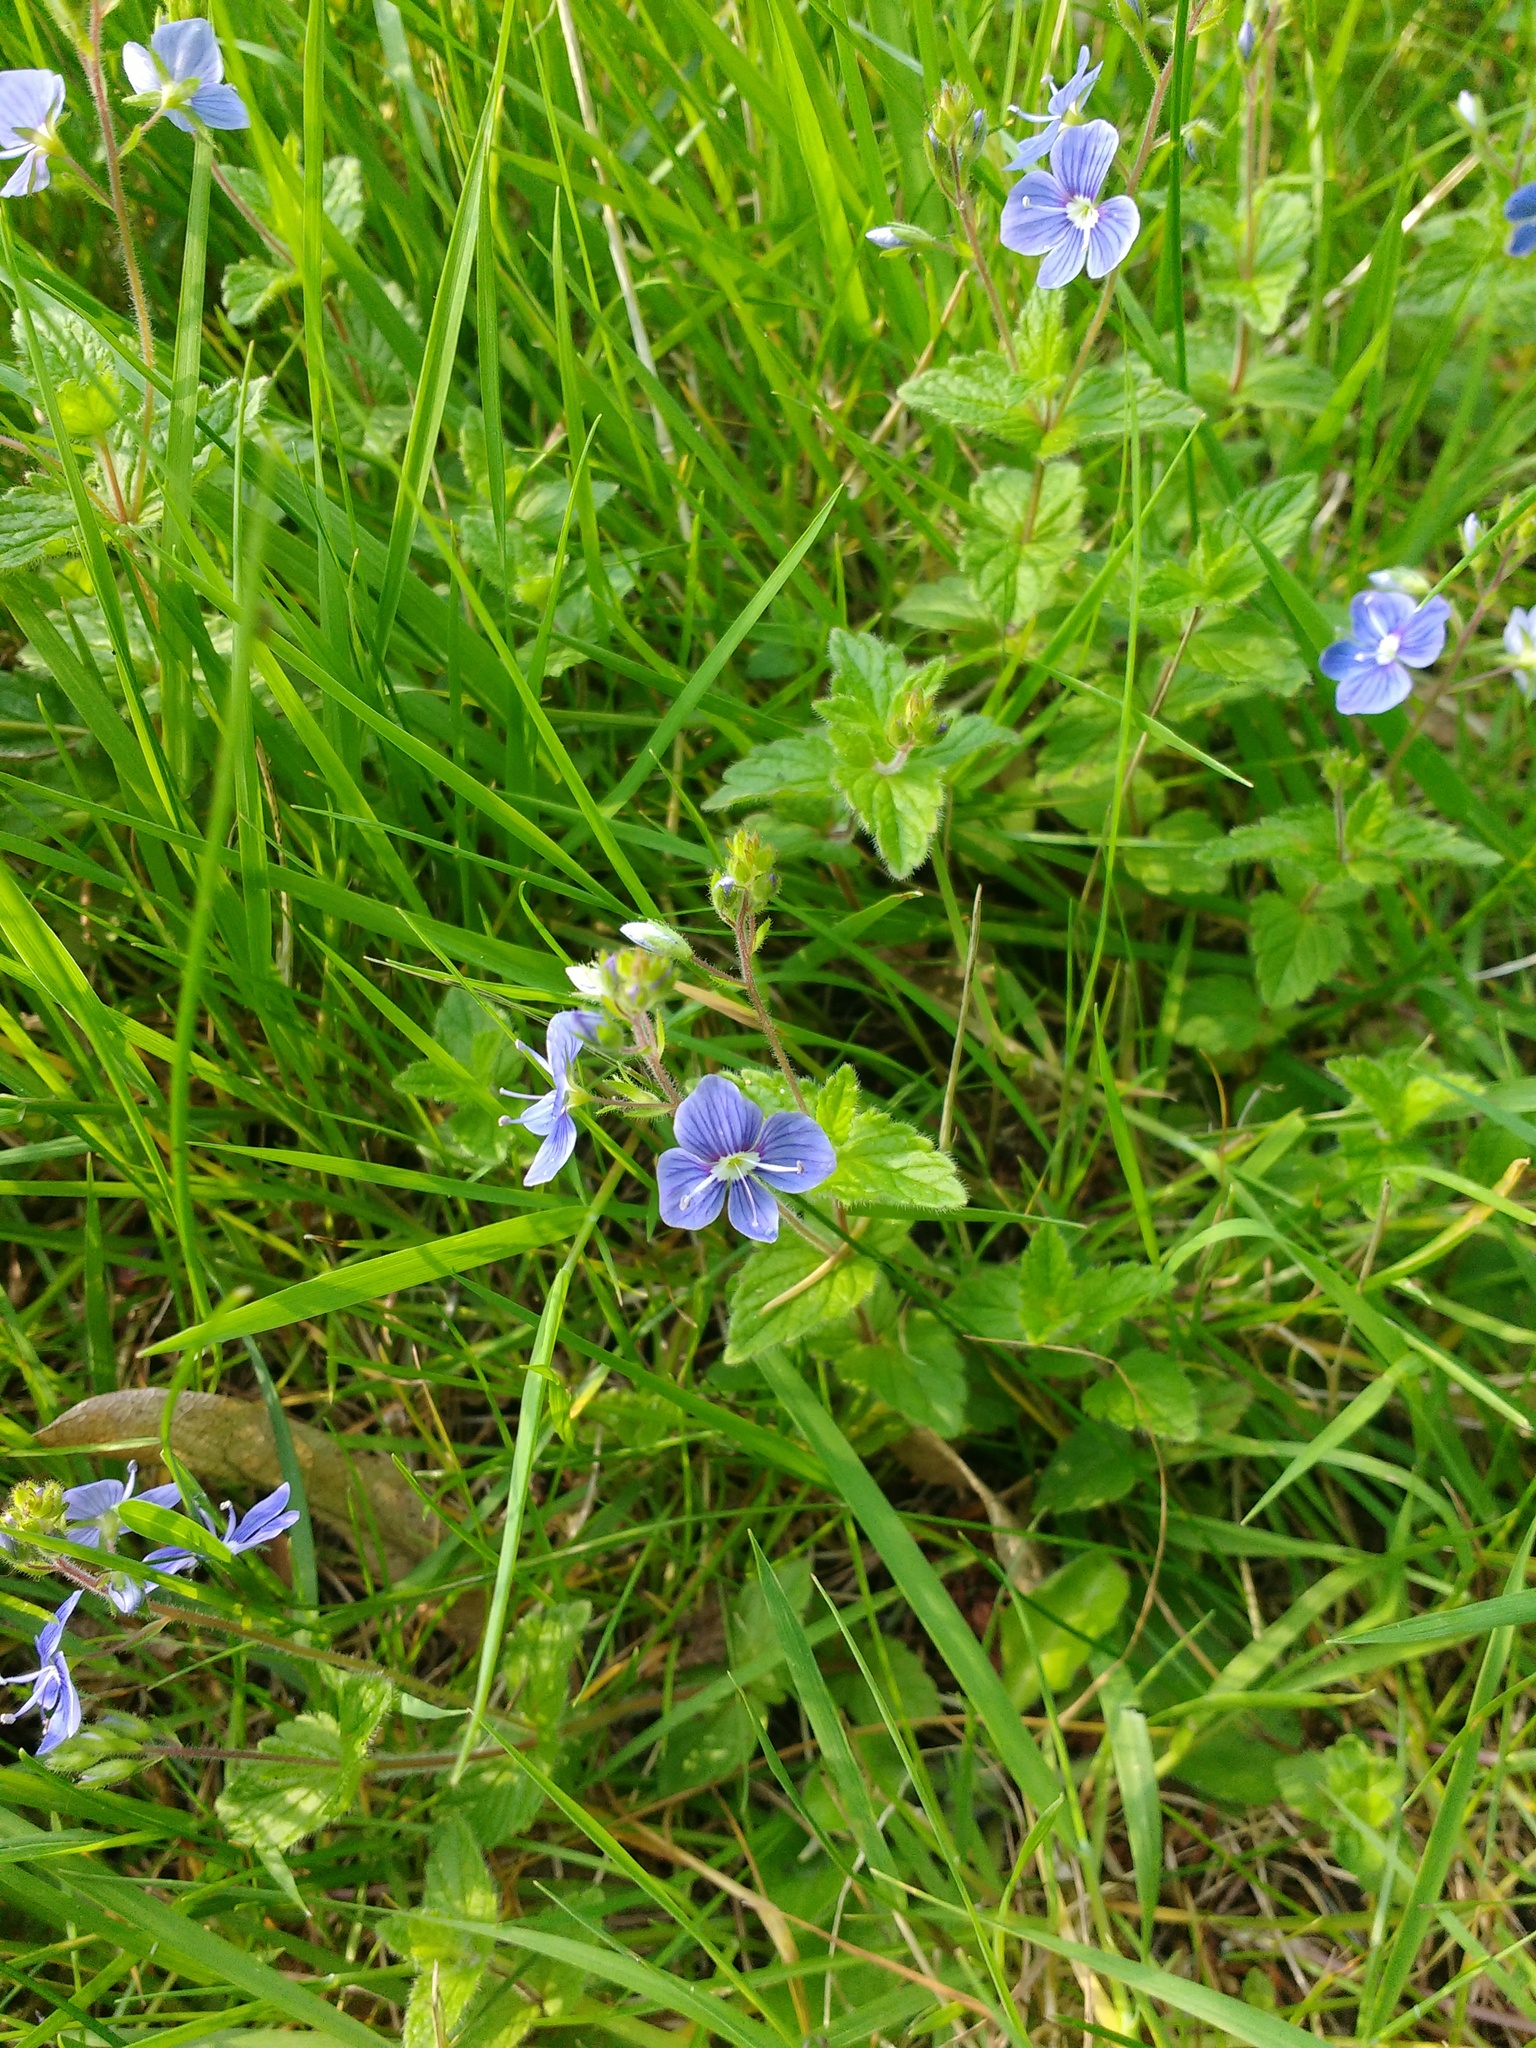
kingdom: Plantae
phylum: Tracheophyta
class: Magnoliopsida
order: Lamiales
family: Plantaginaceae
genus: Veronica
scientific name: Veronica chamaedrys
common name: Germander speedwell
